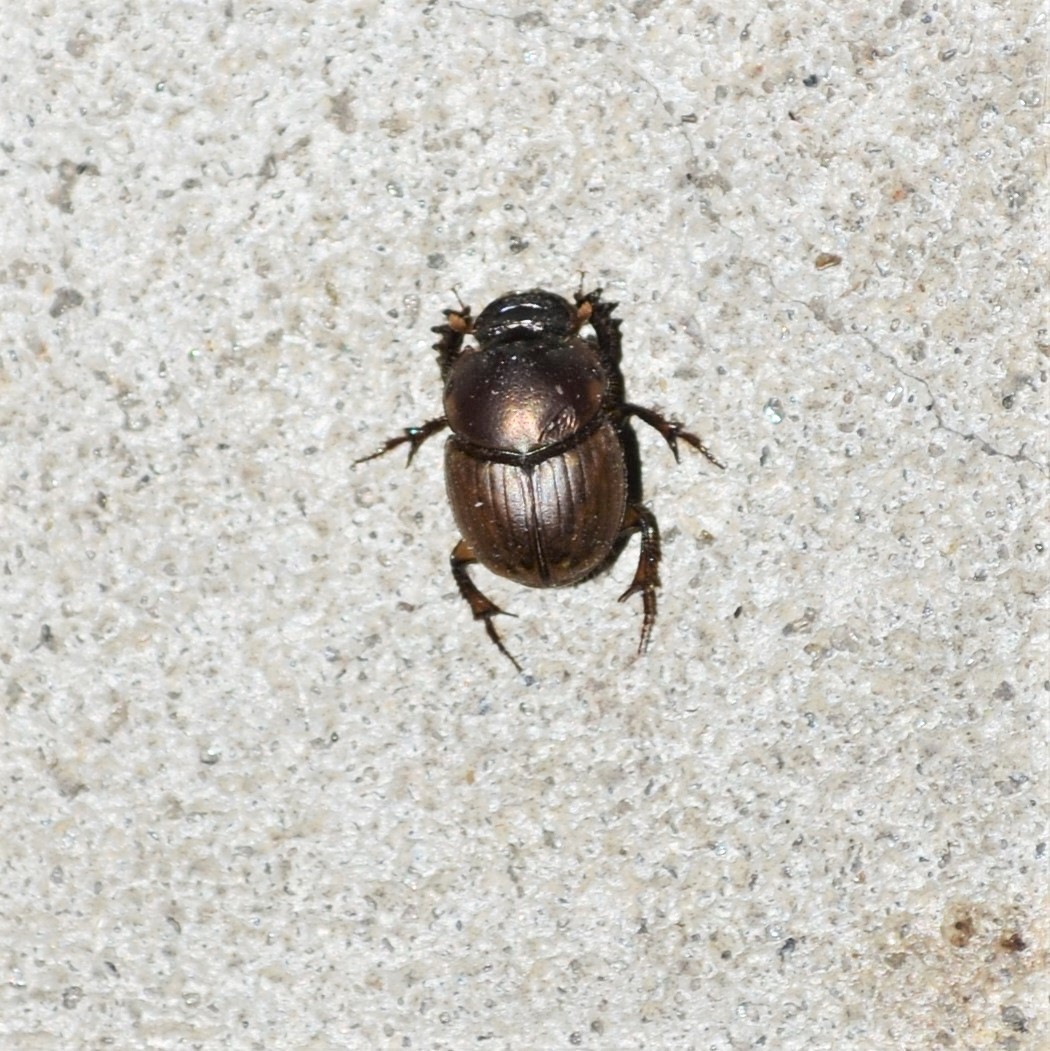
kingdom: Animalia
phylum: Arthropoda
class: Insecta
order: Coleoptera
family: Scarabaeidae
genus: Digitonthophagus
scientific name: Digitonthophagus gazella
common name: Brown dung beetle
